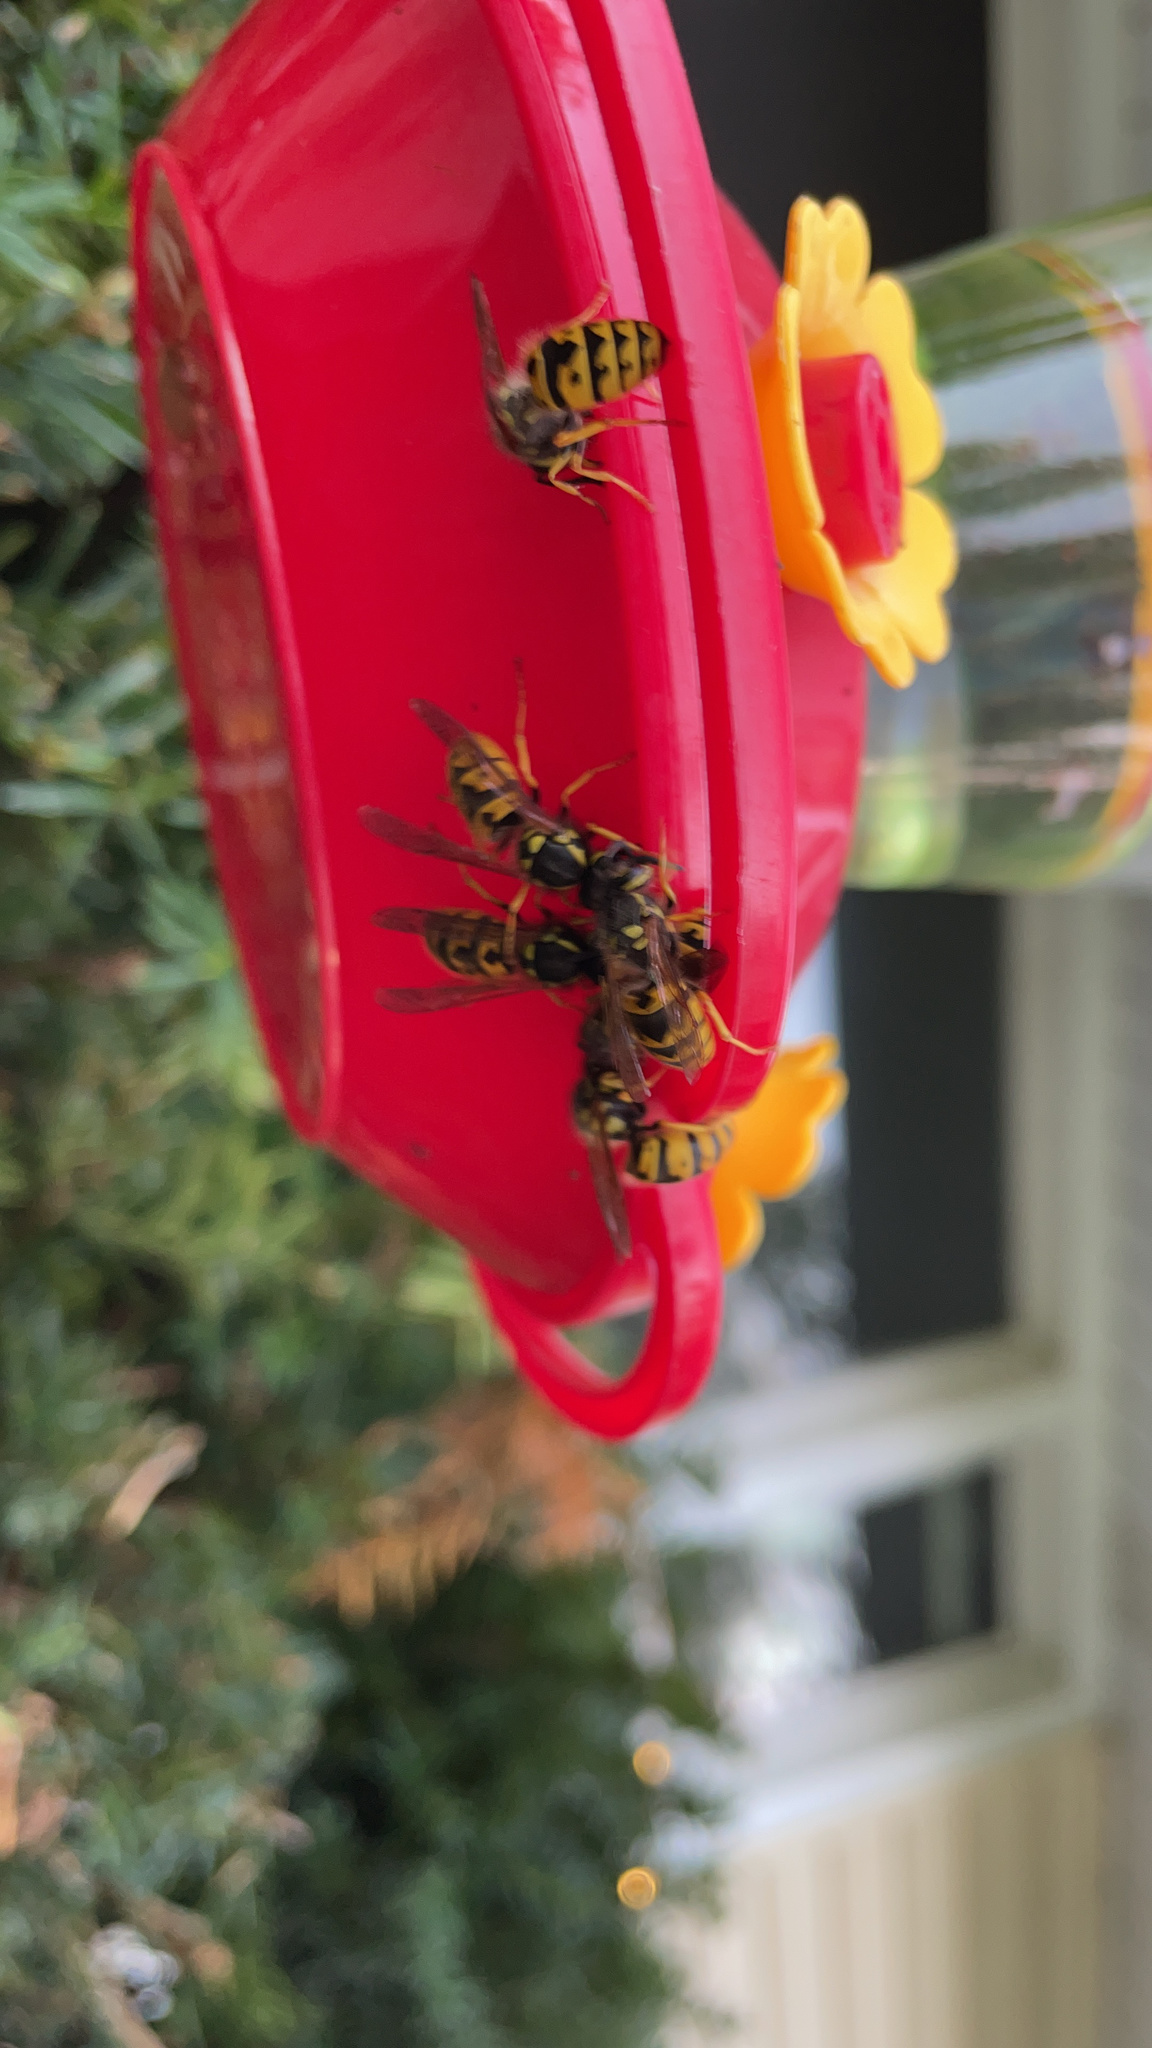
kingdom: Animalia
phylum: Arthropoda
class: Insecta
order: Hymenoptera
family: Vespidae
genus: Vespula
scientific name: Vespula germanica
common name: German wasp
